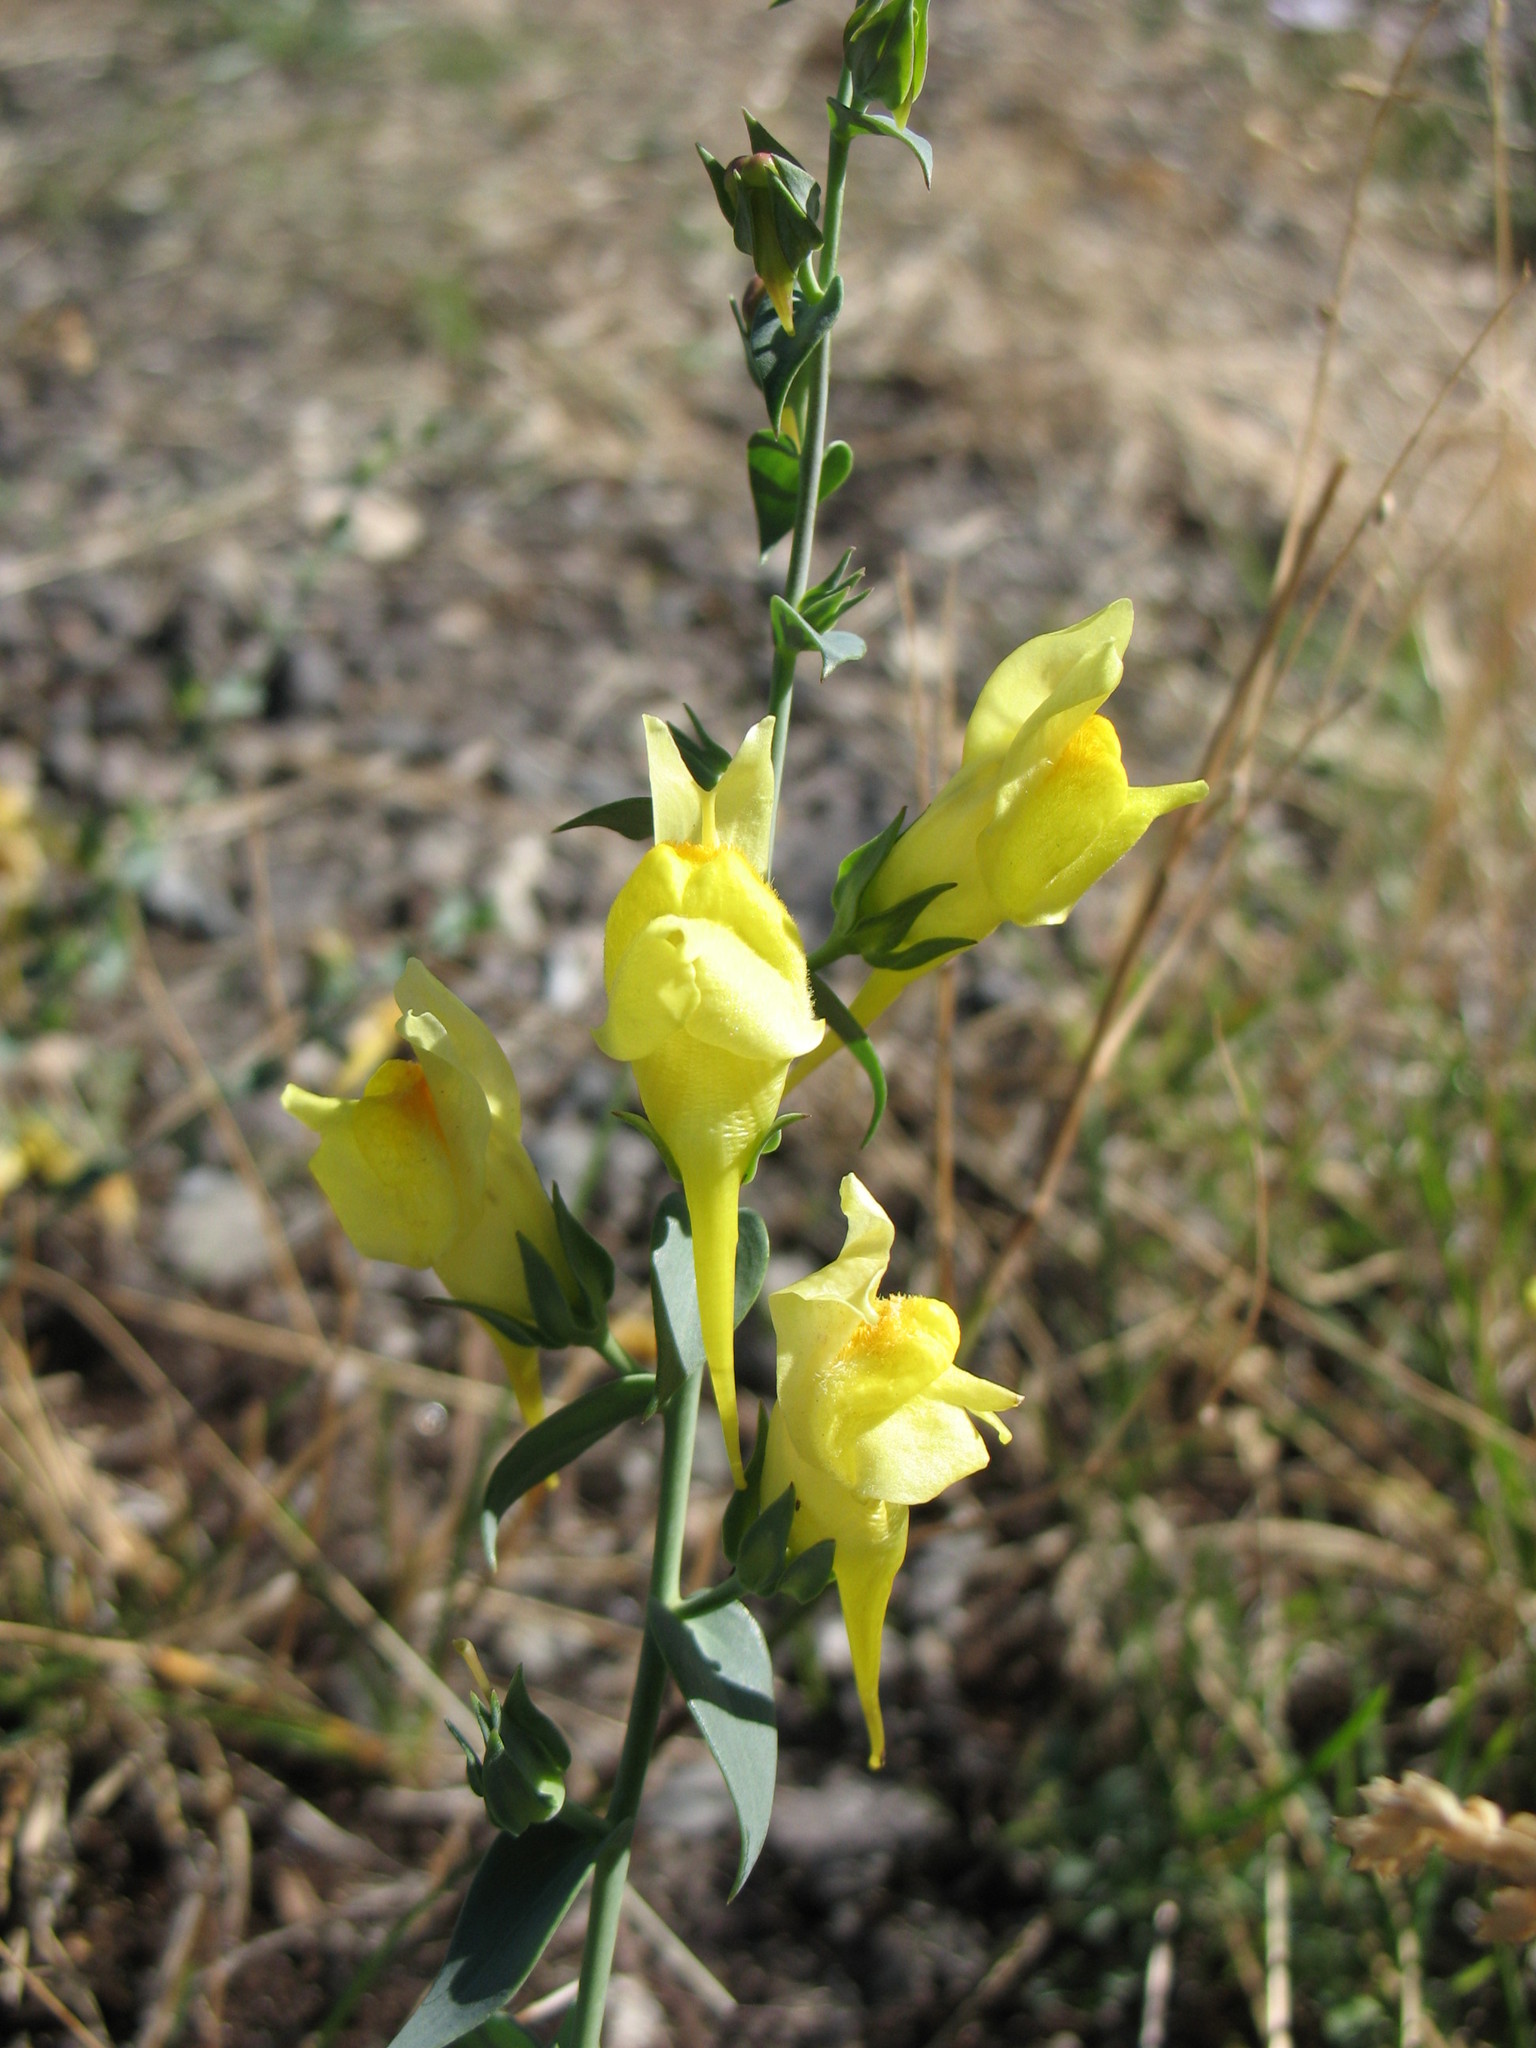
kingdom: Plantae
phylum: Tracheophyta
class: Magnoliopsida
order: Lamiales
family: Plantaginaceae
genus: Linaria
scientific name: Linaria dalmatica
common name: Dalmatian toadflax
